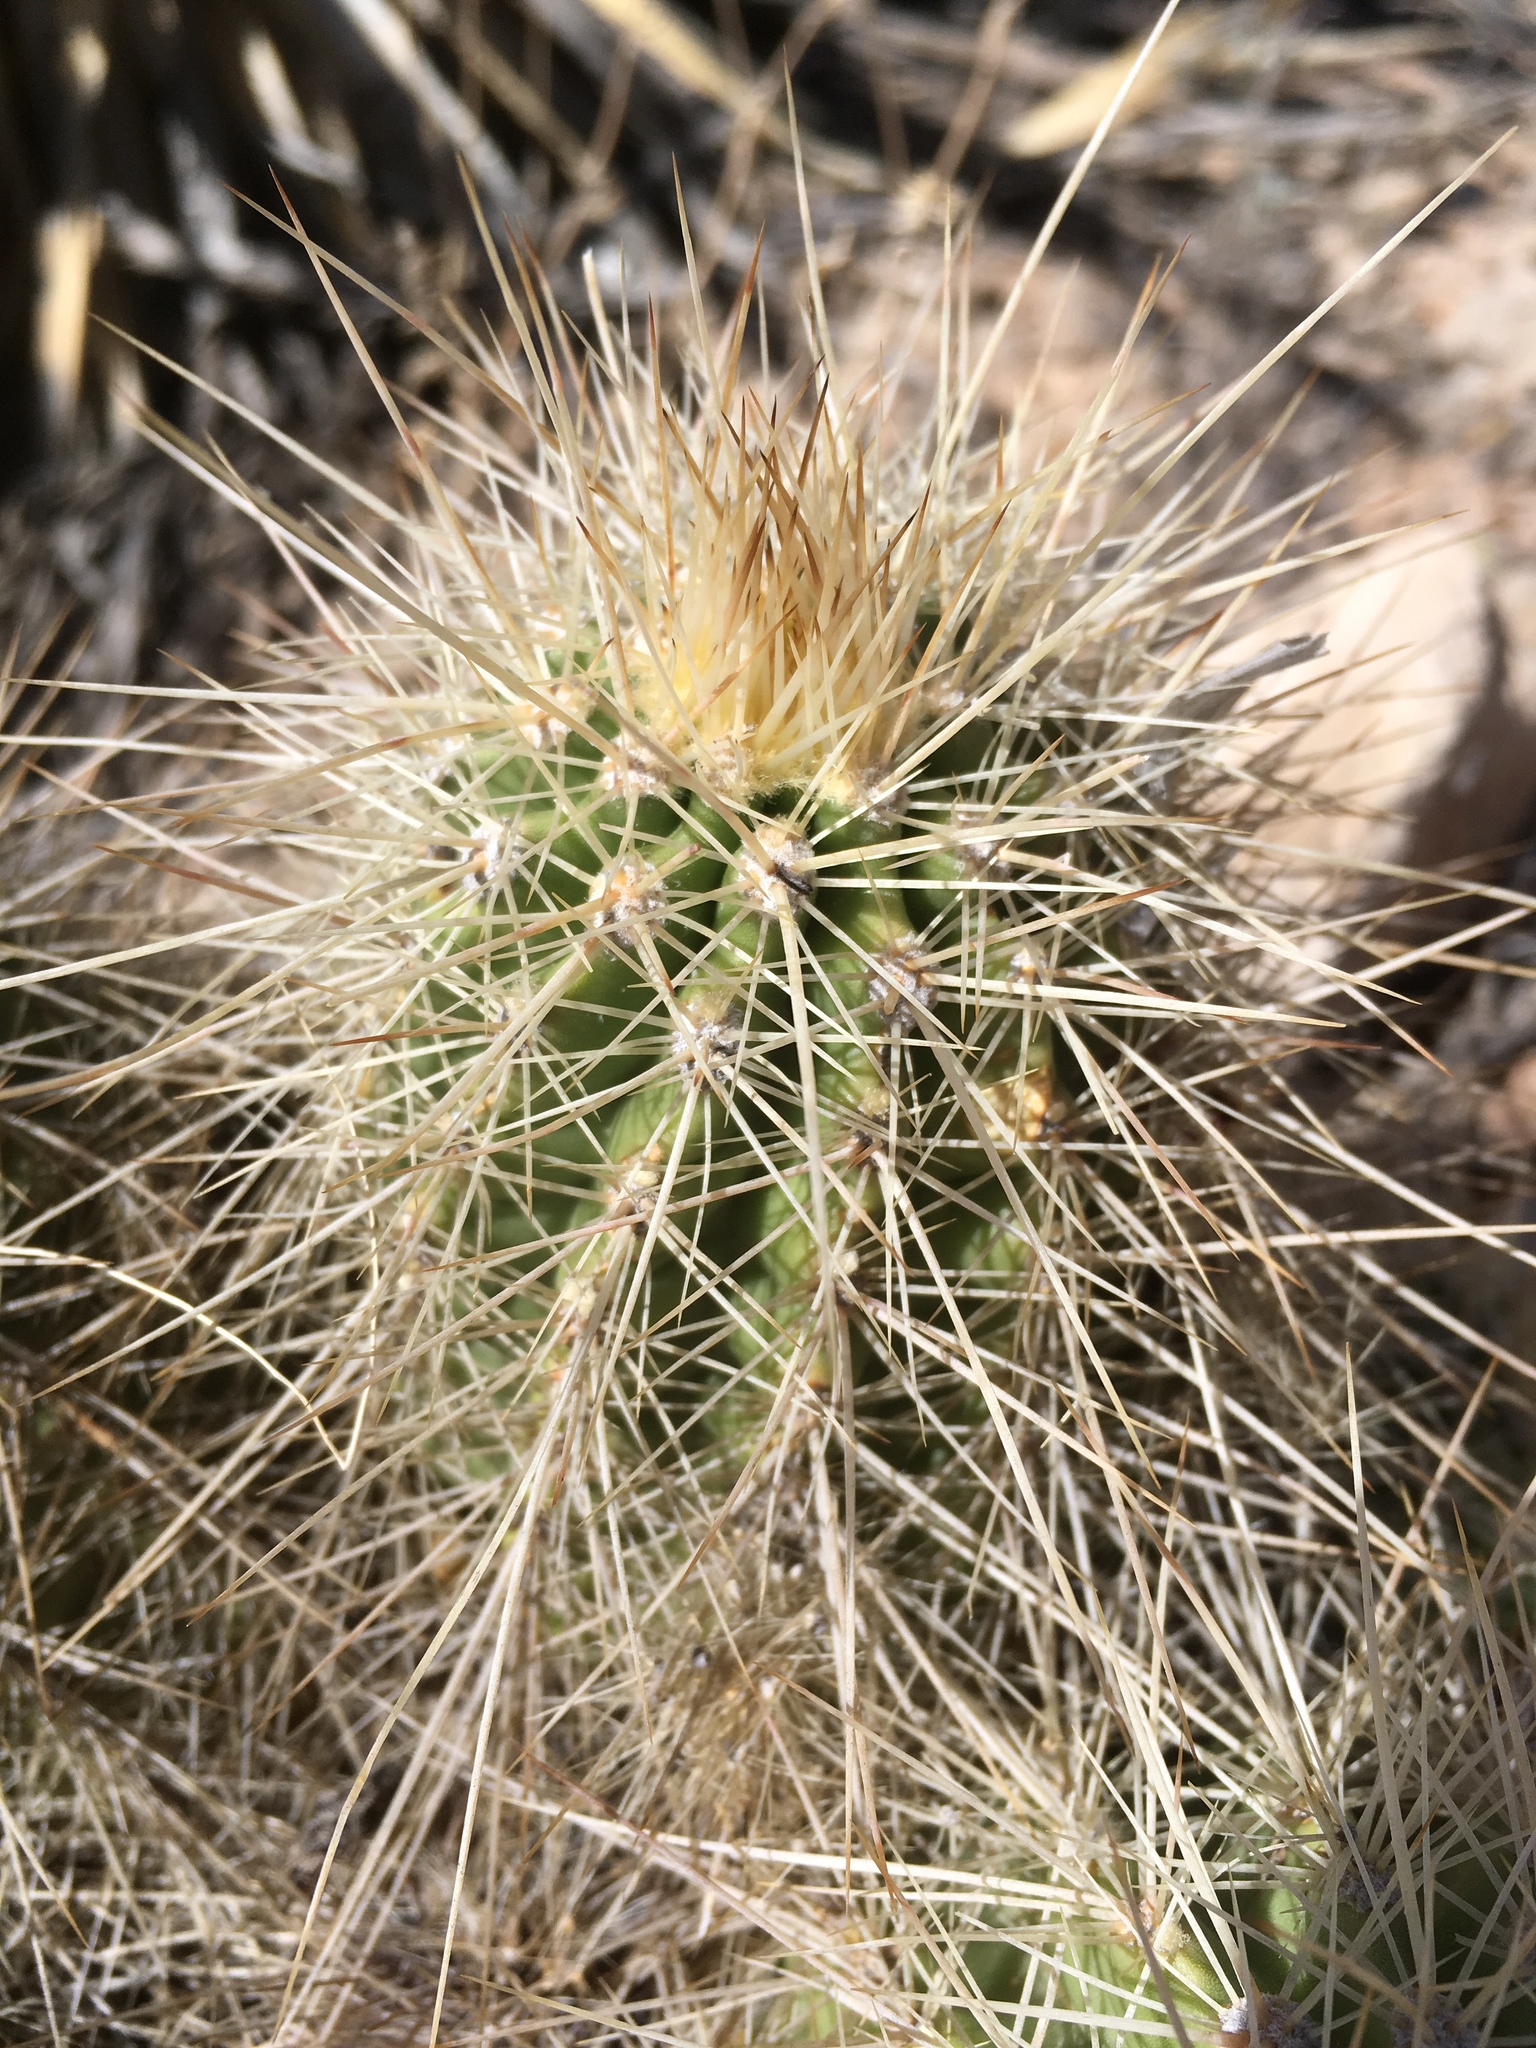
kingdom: Plantae
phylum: Tracheophyta
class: Magnoliopsida
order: Caryophyllales
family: Cactaceae
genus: Echinocereus
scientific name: Echinocereus coccineus
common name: Scarlet hedgehog cactus
